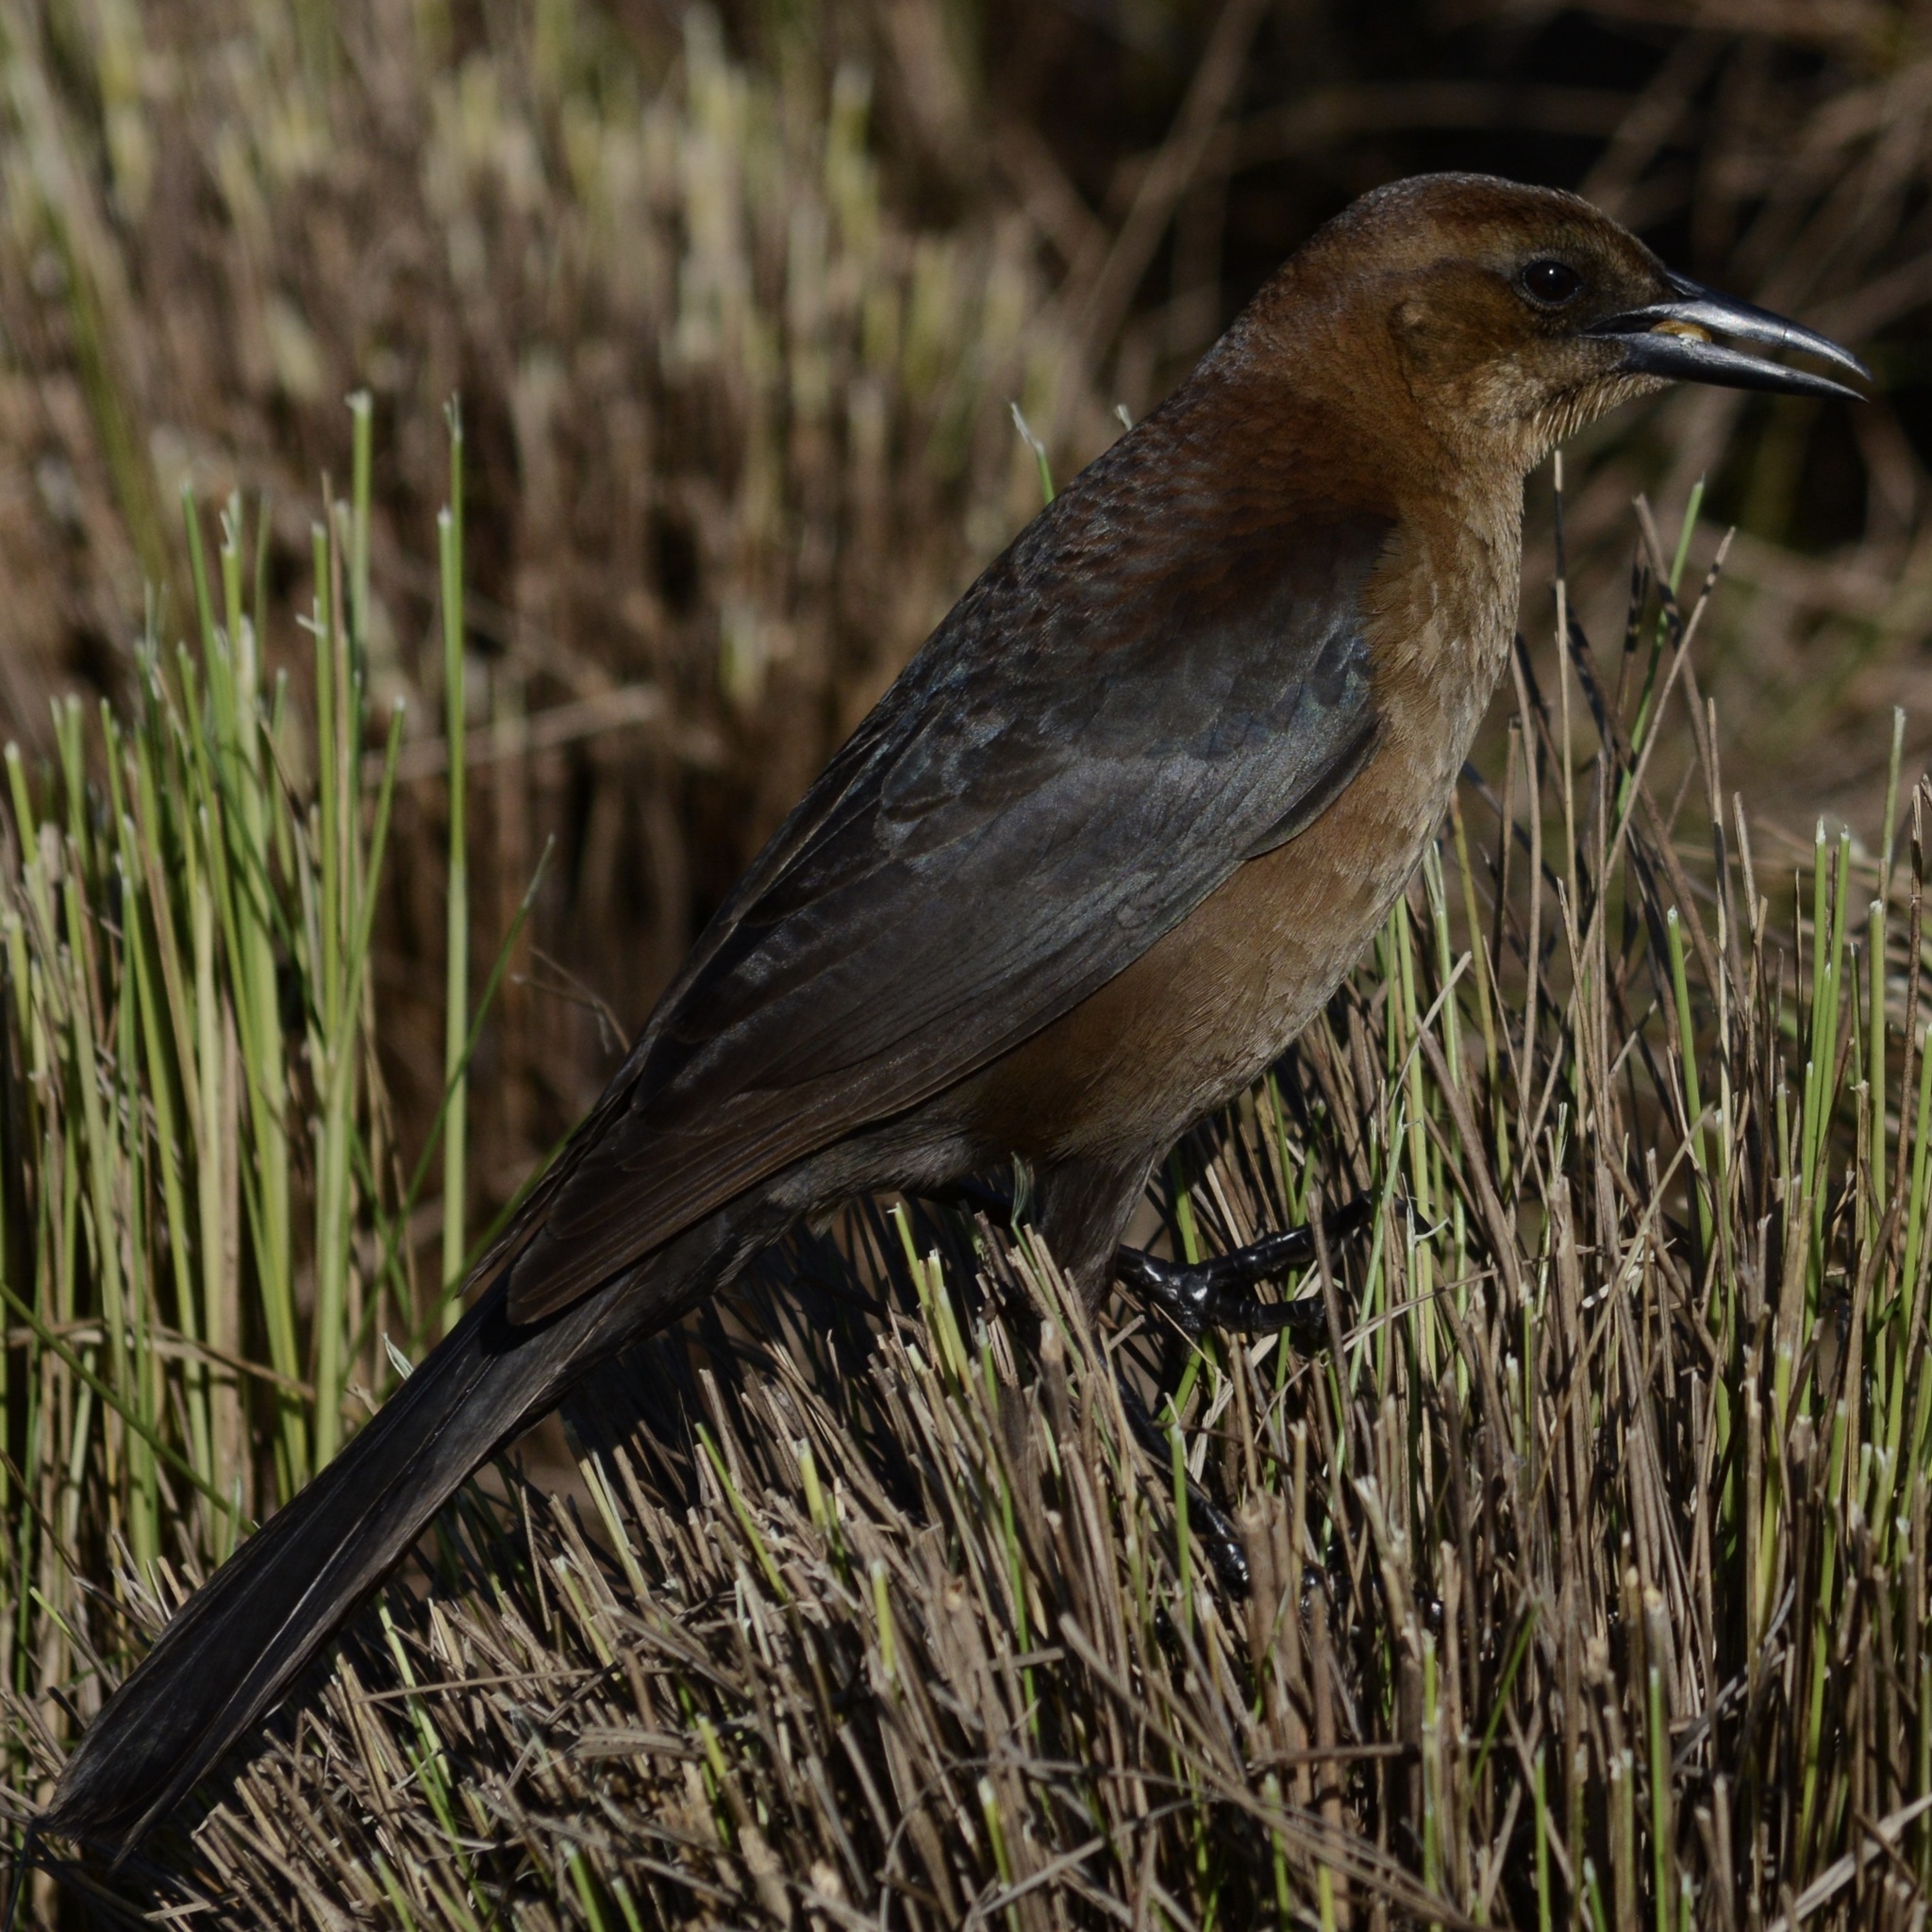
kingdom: Animalia
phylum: Chordata
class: Aves
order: Passeriformes
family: Icteridae
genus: Quiscalus
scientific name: Quiscalus major
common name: Boat-tailed grackle
